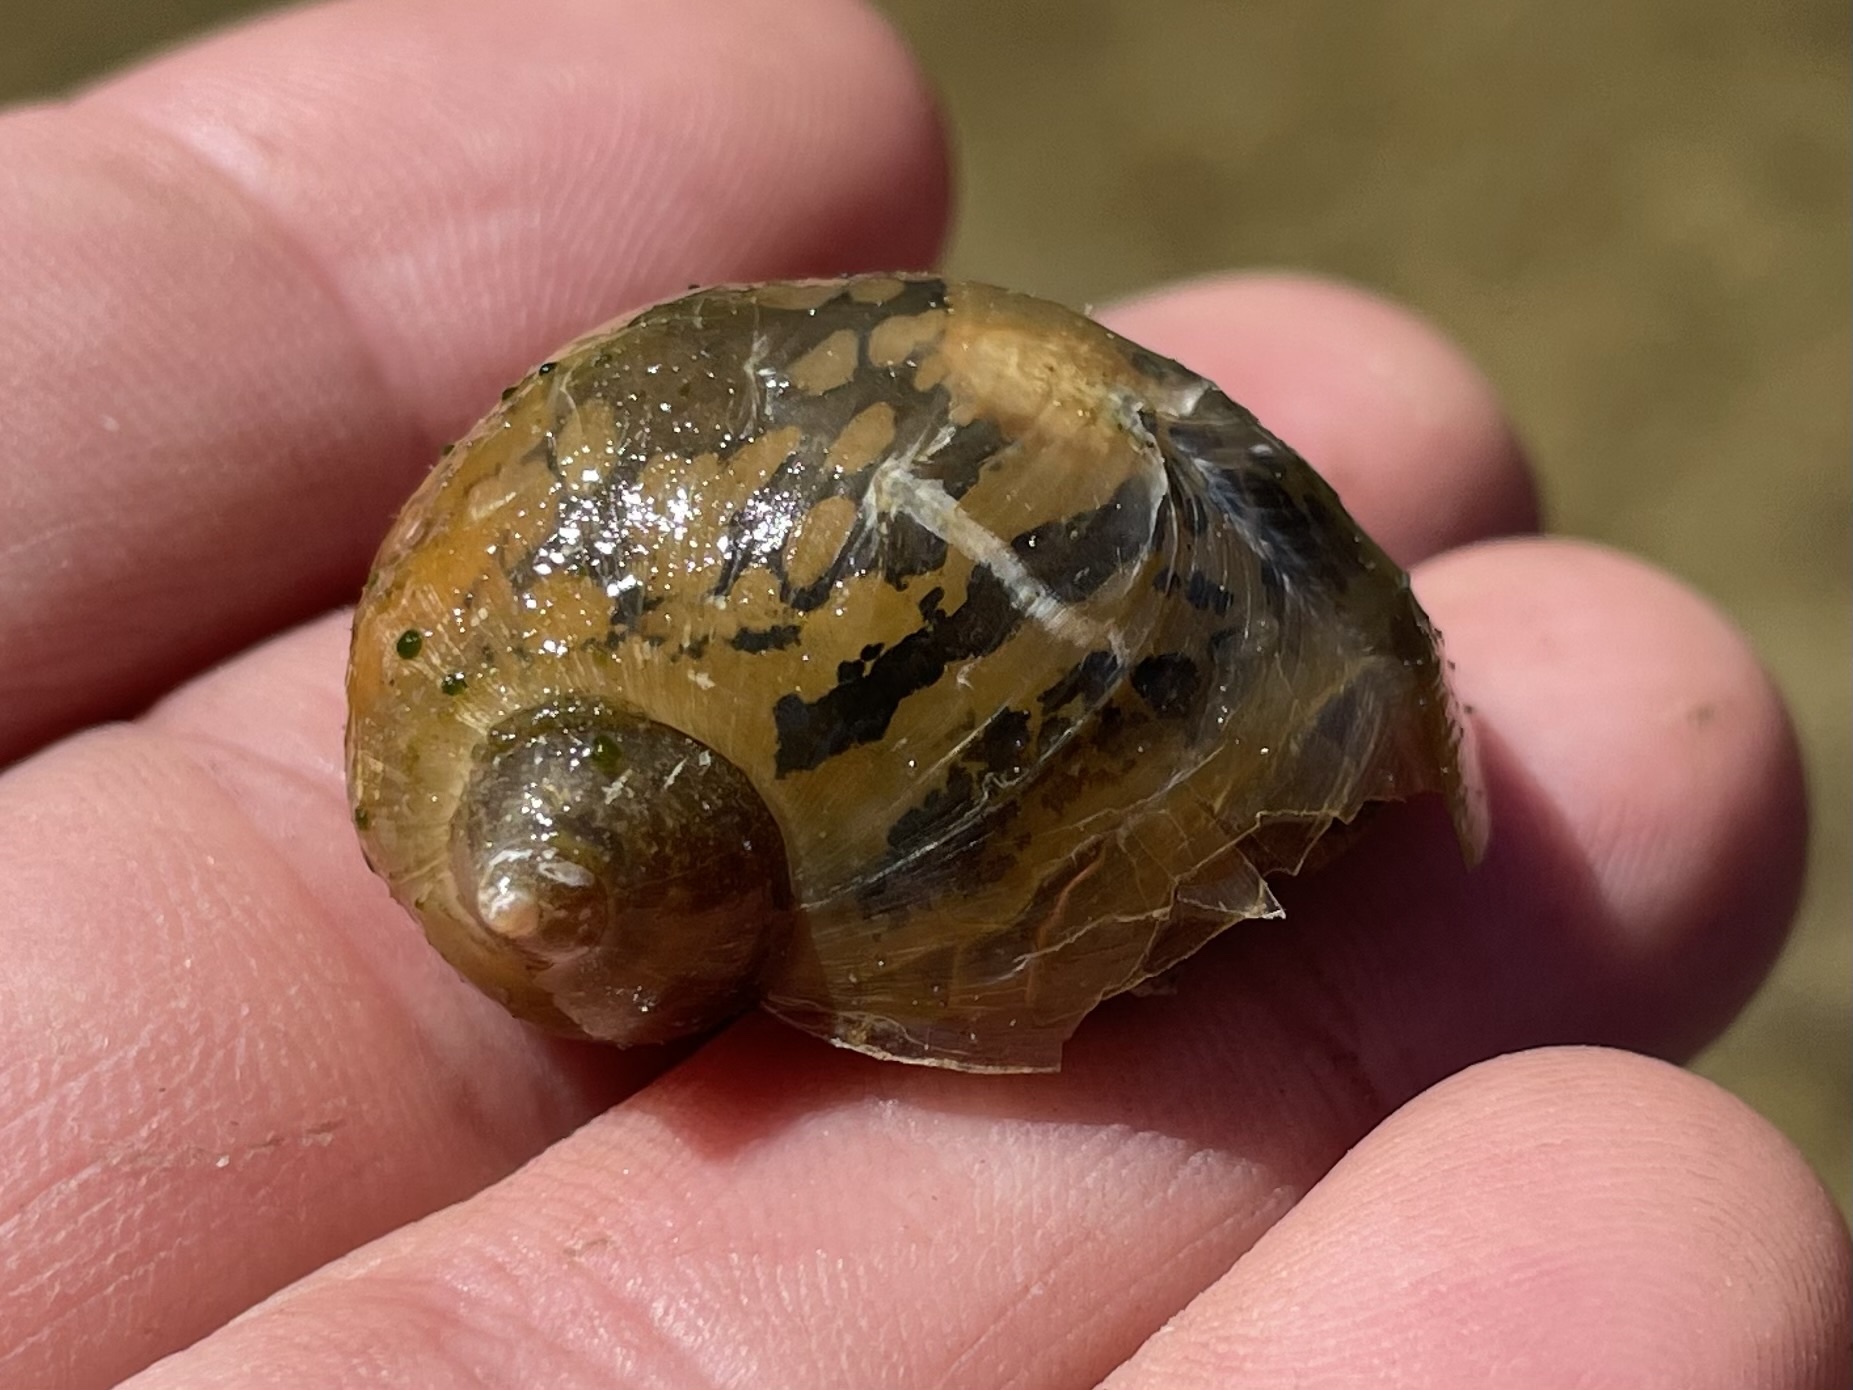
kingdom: Animalia
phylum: Mollusca
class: Gastropoda
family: Lymnaeidae
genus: Radix
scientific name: Radix auricularia
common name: Ear pond snail
